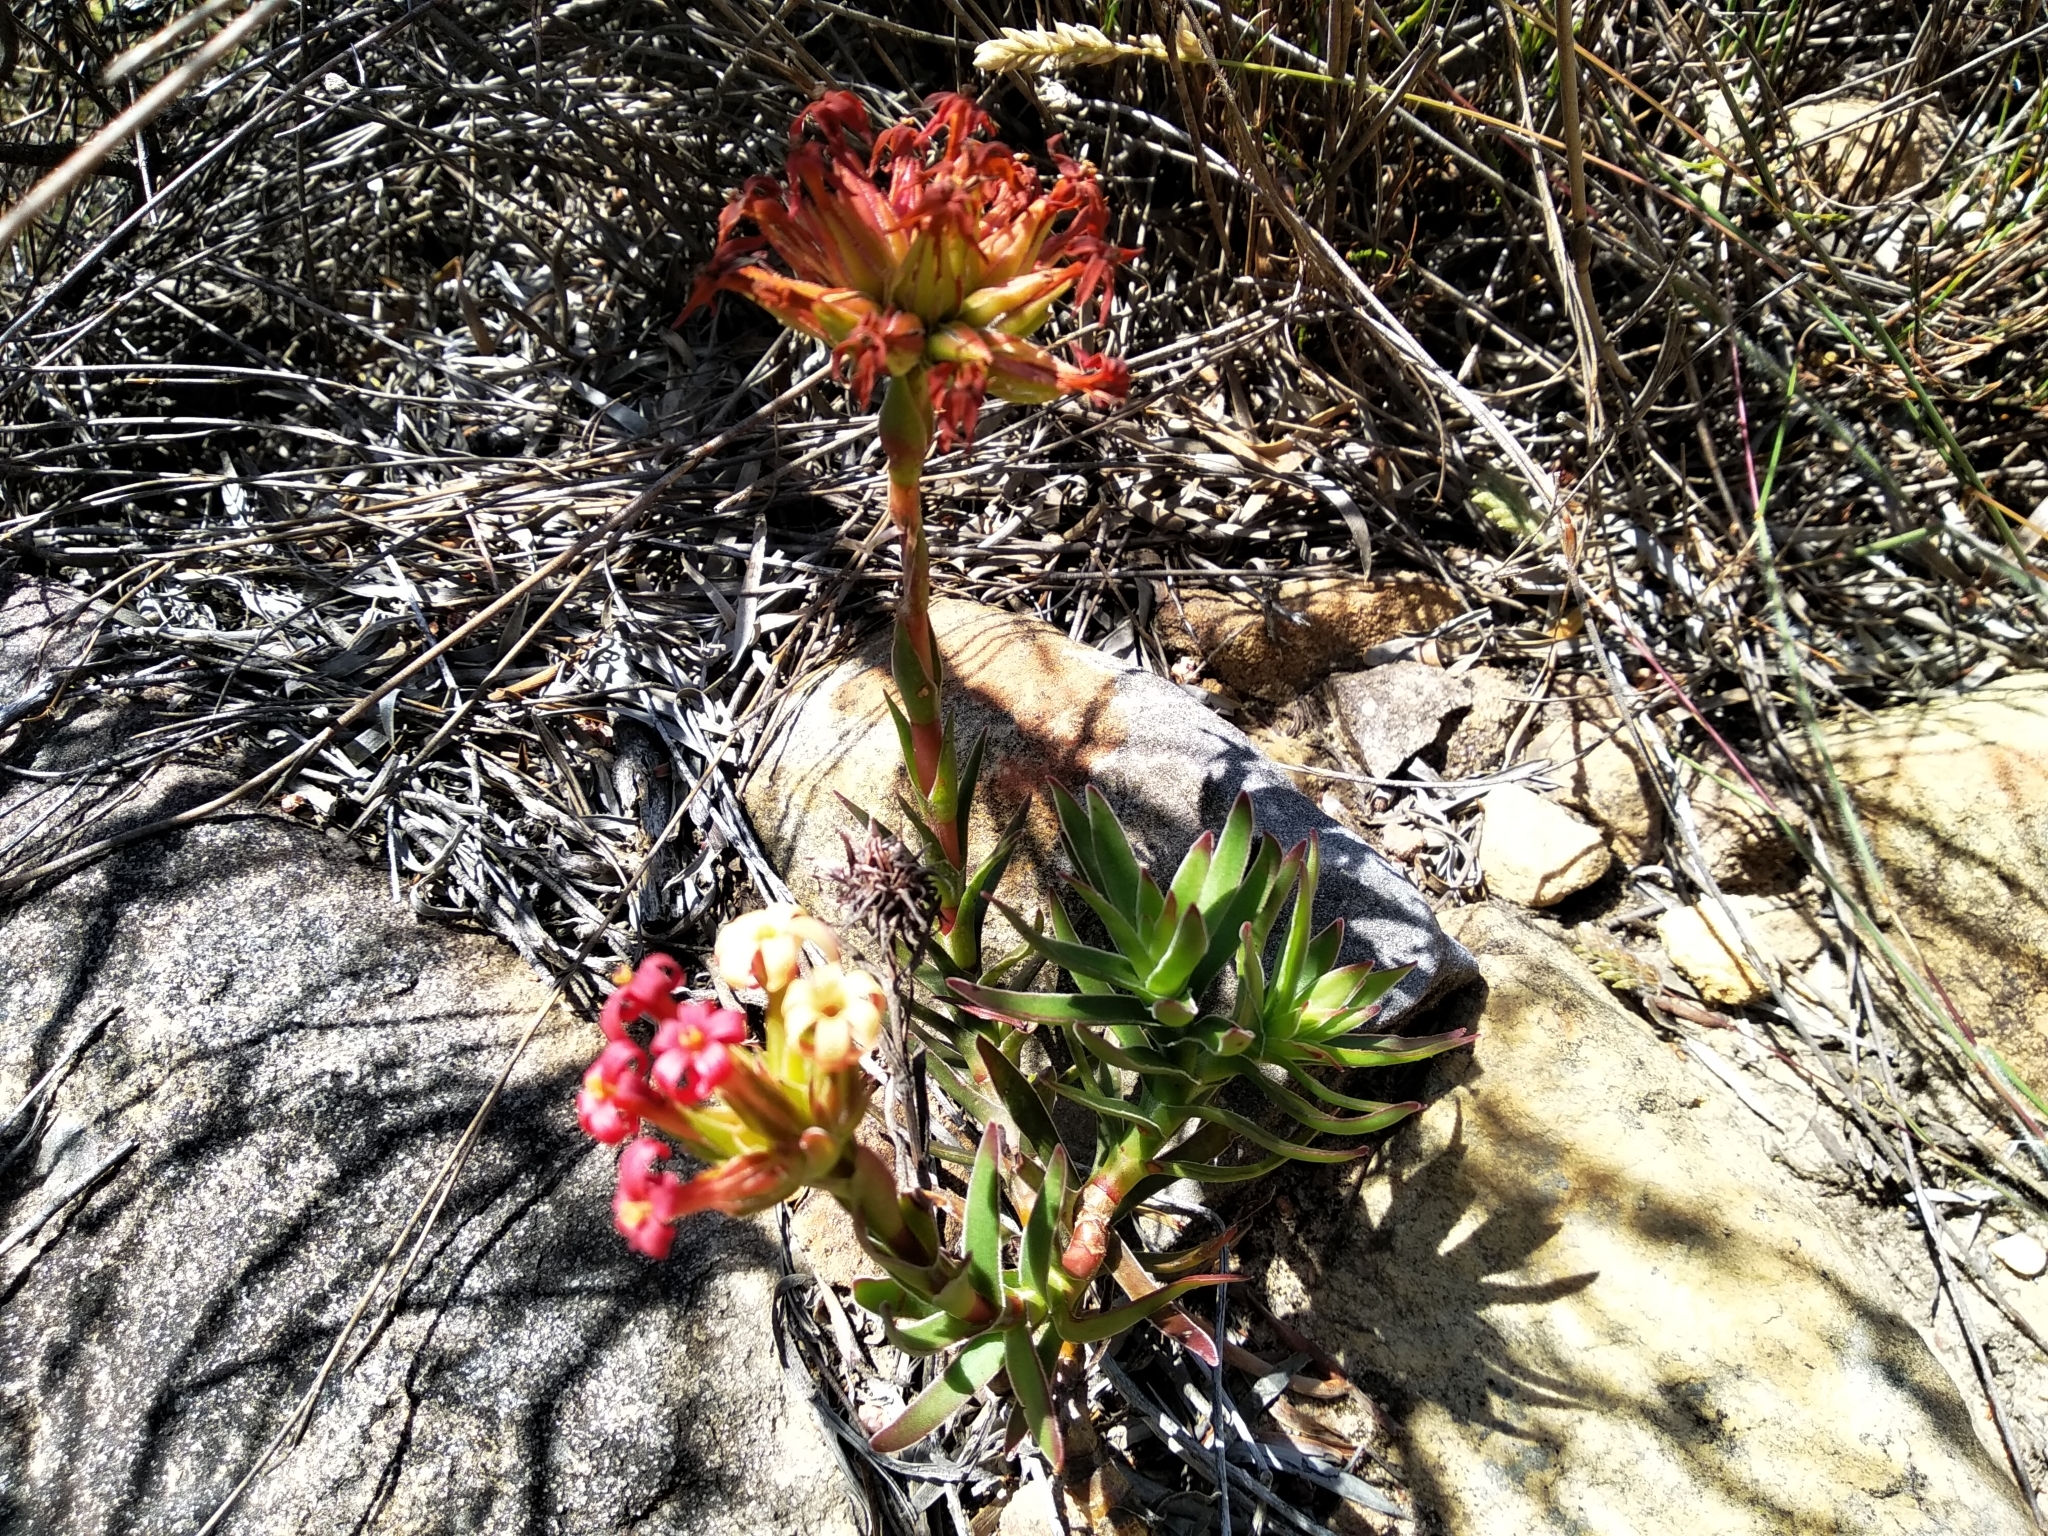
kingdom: Plantae
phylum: Tracheophyta
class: Magnoliopsida
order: Saxifragales
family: Crassulaceae
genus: Crassula
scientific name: Crassula fascicularis
